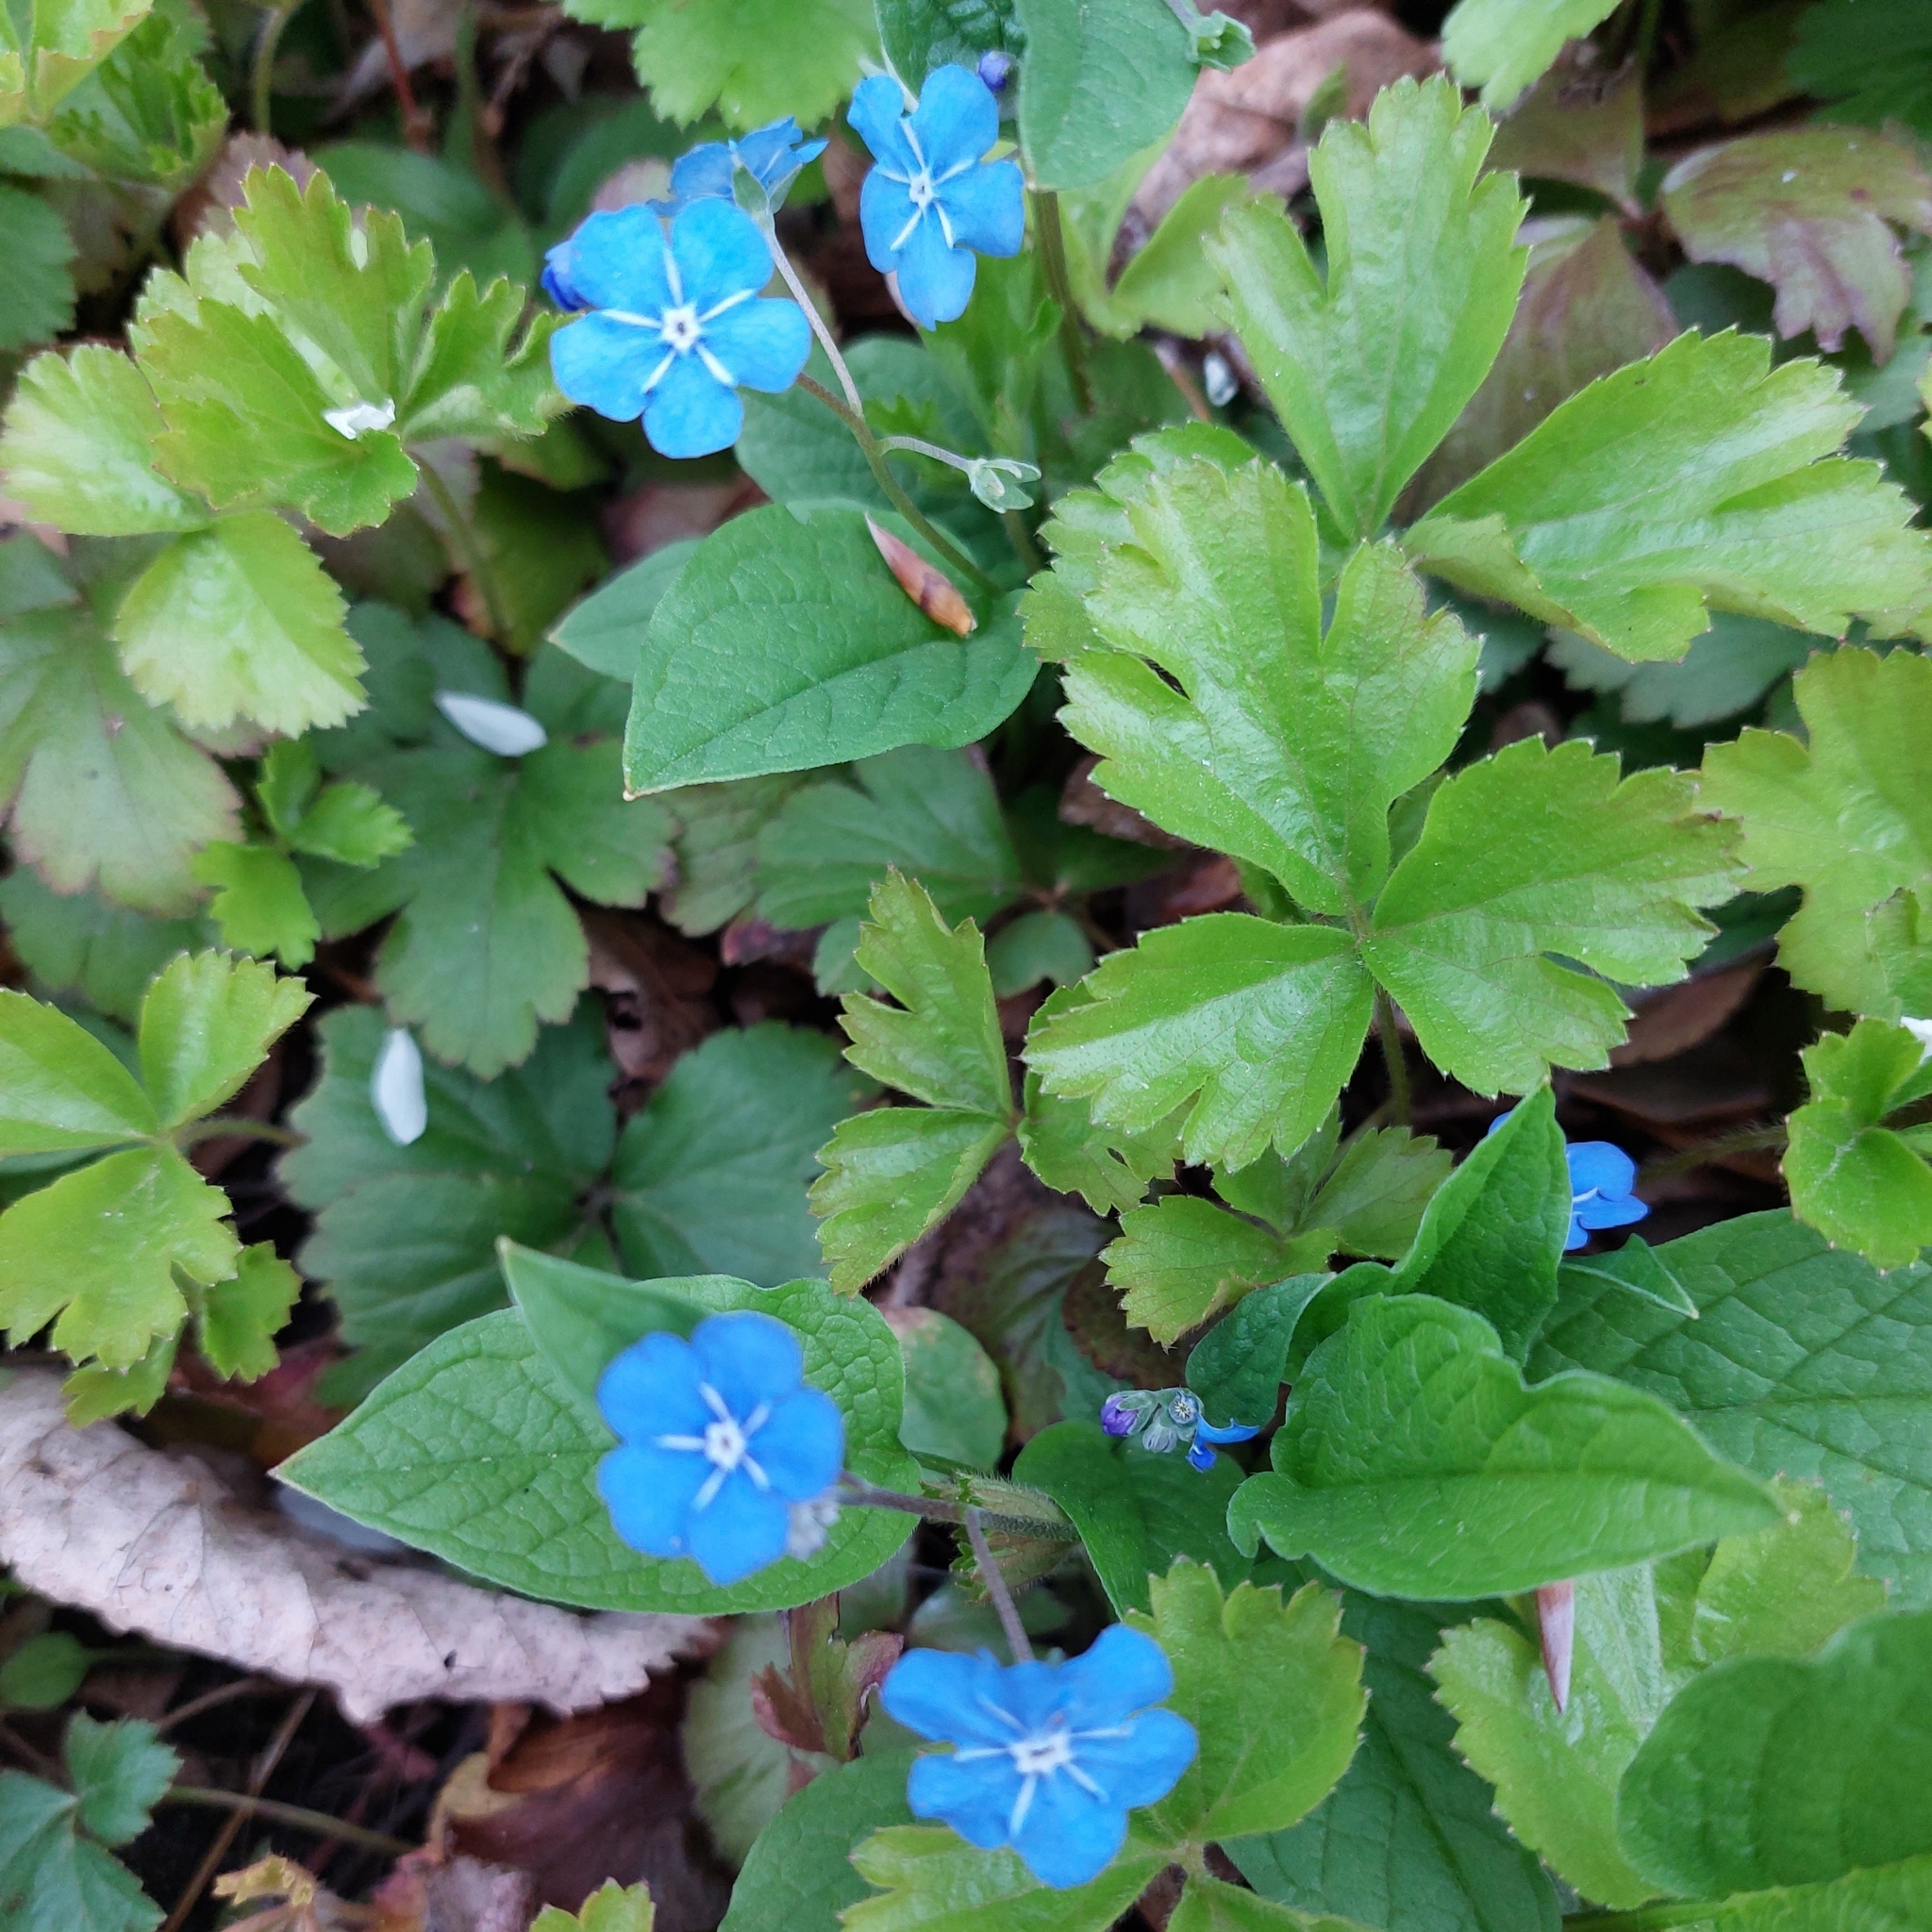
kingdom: Plantae
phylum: Tracheophyta
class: Magnoliopsida
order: Boraginales
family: Boraginaceae
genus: Omphalodes
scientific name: Omphalodes verna
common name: Blue-eyed-mary
